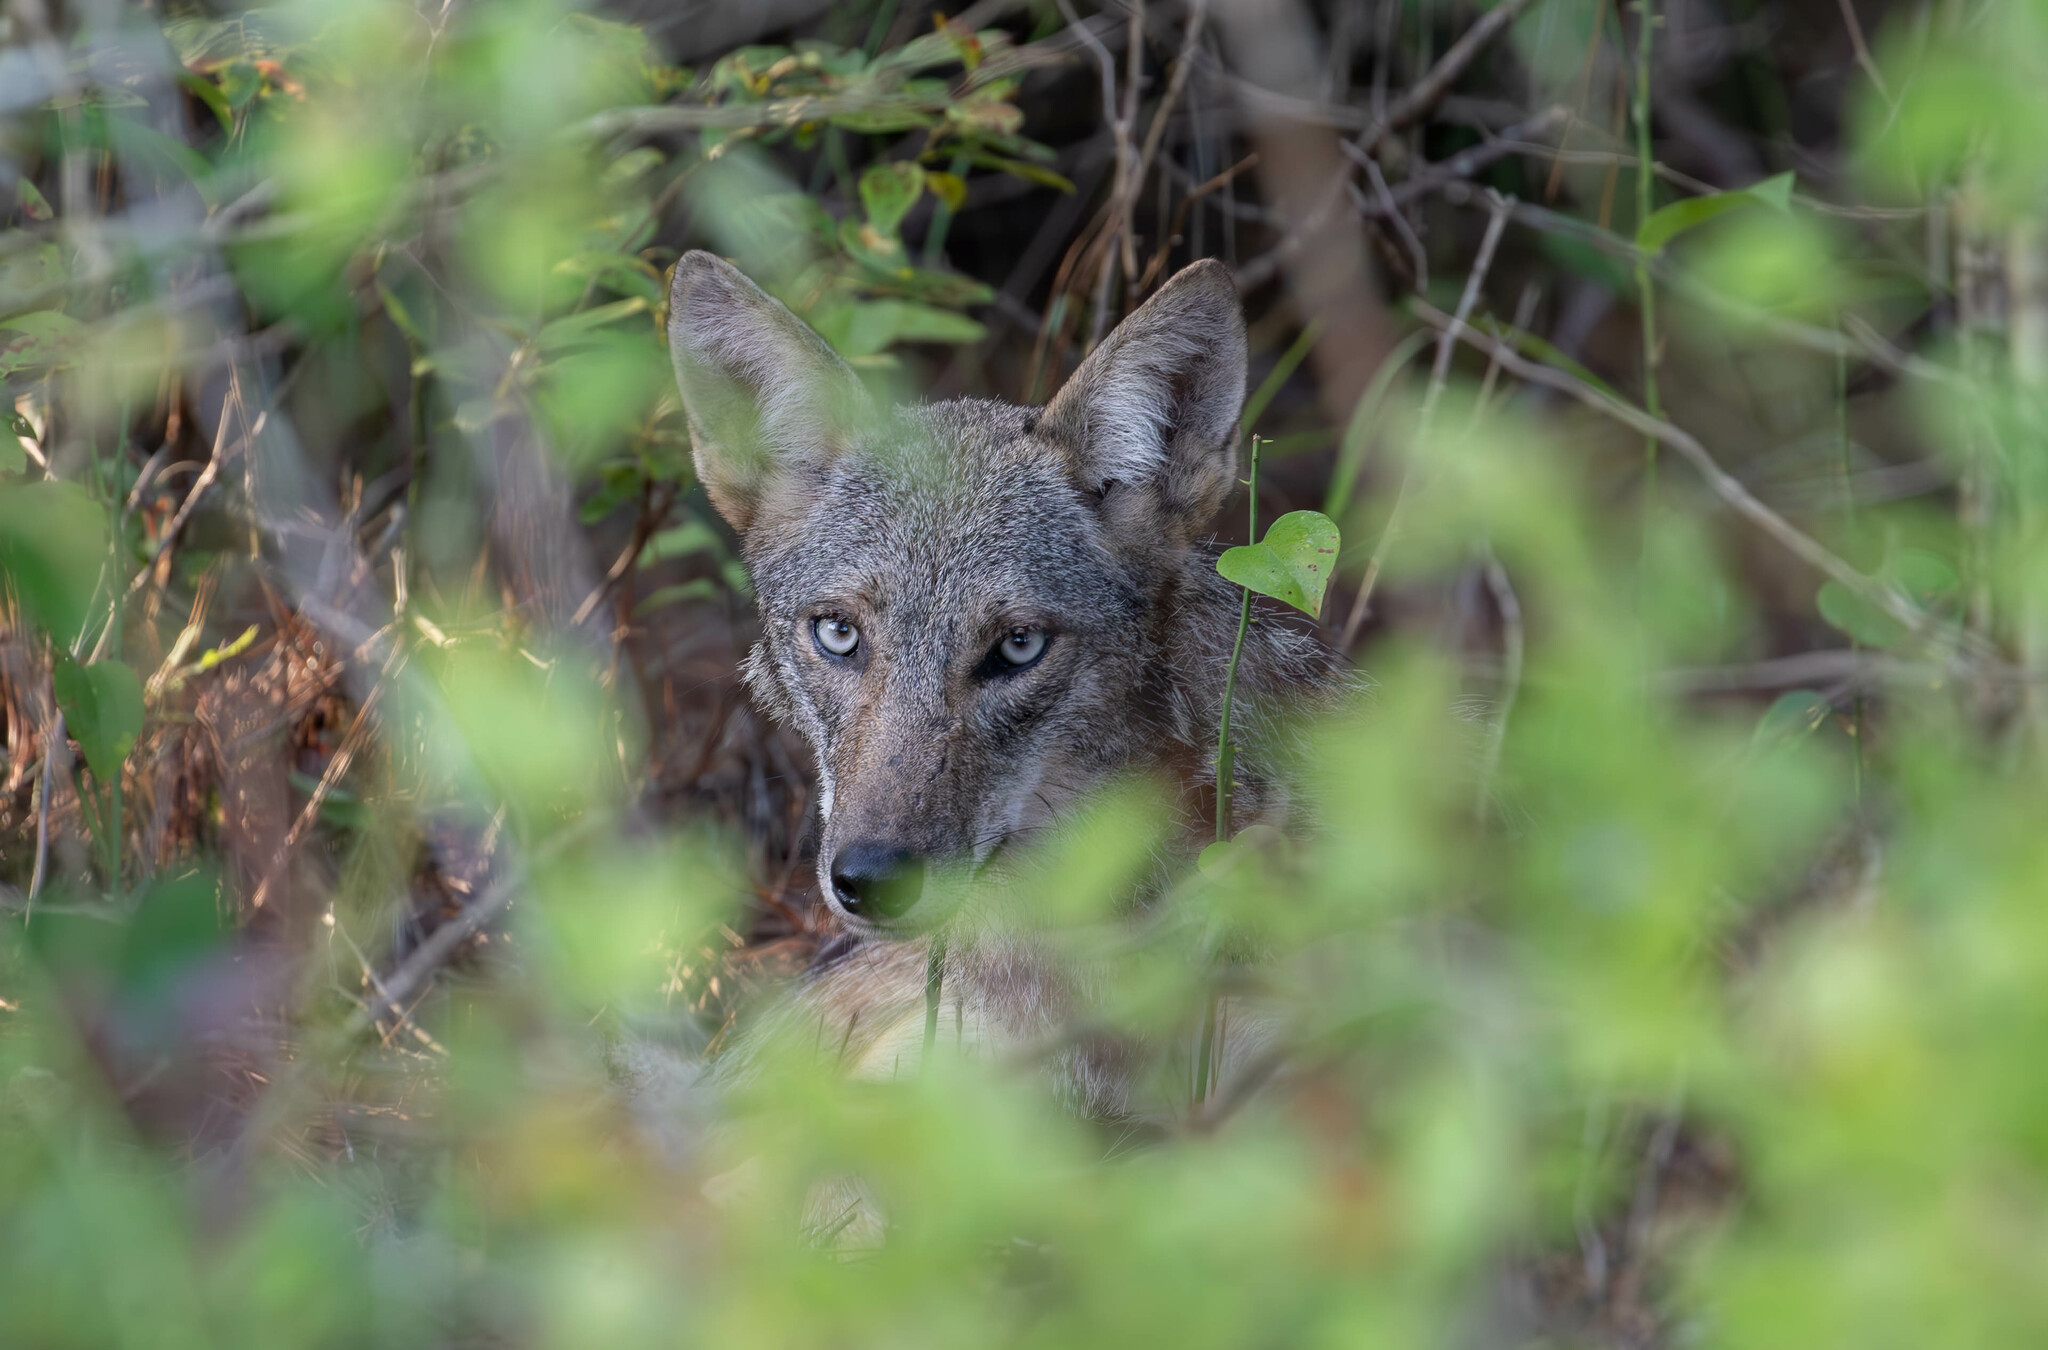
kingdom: Animalia
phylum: Chordata
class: Mammalia
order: Carnivora
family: Canidae
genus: Canis
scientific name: Canis latrans
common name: Coyote
